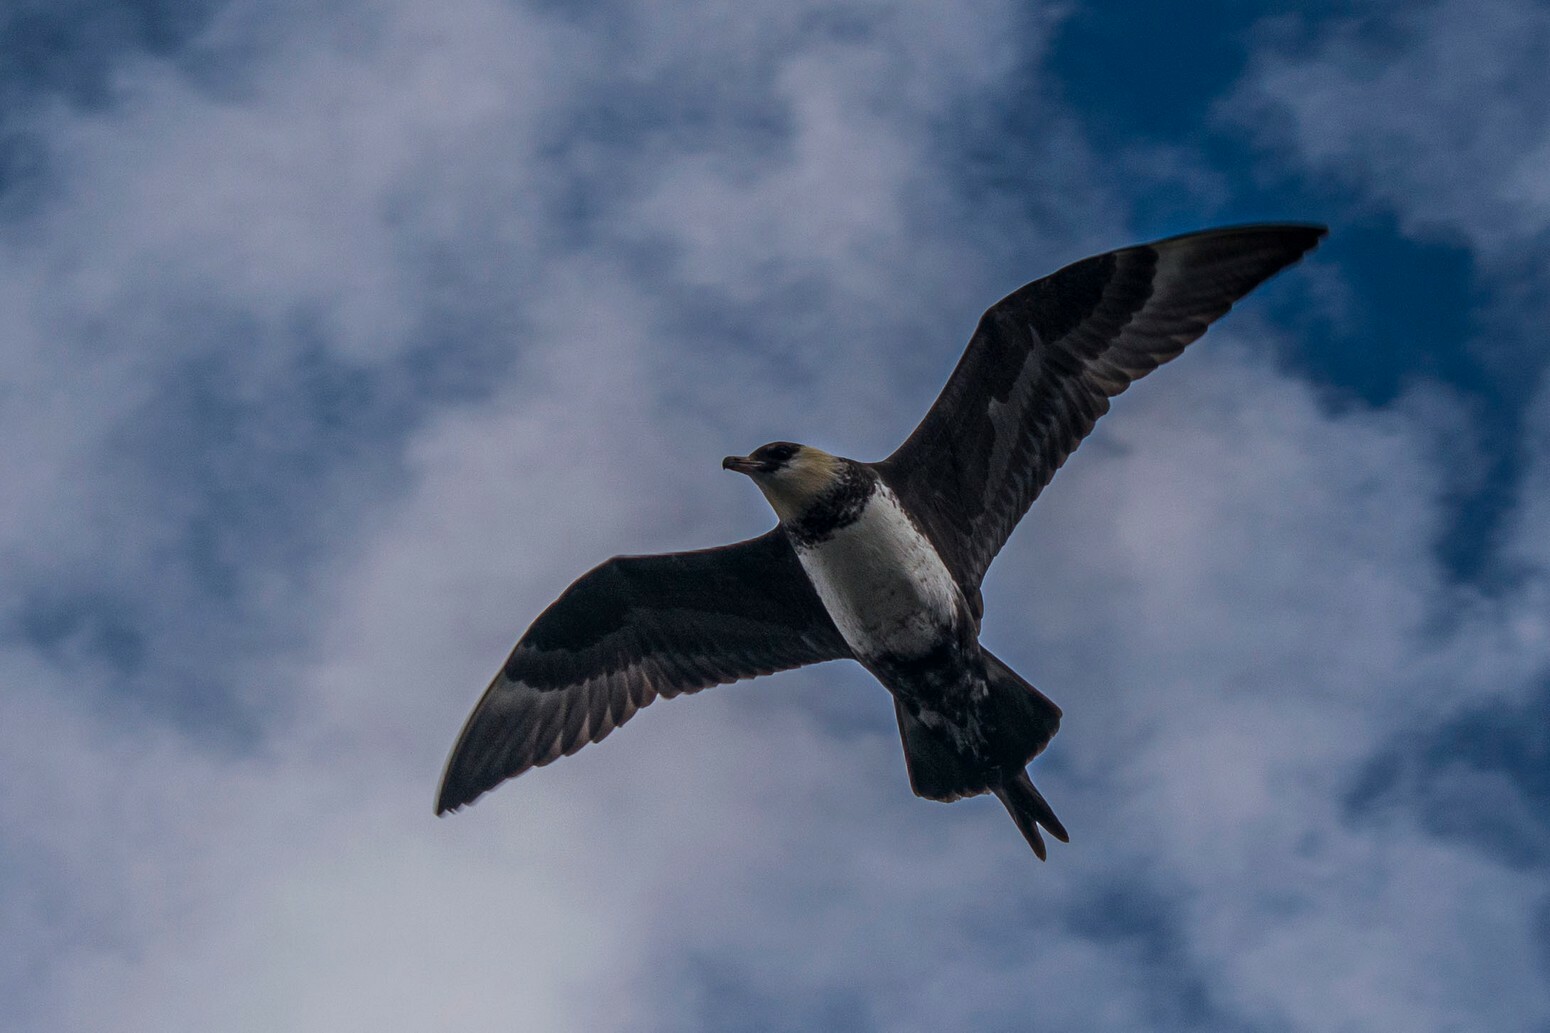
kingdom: Animalia
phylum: Chordata
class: Aves
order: Charadriiformes
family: Stercorariidae
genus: Stercorarius
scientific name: Stercorarius pomarinus
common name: Pomarine jaeger
